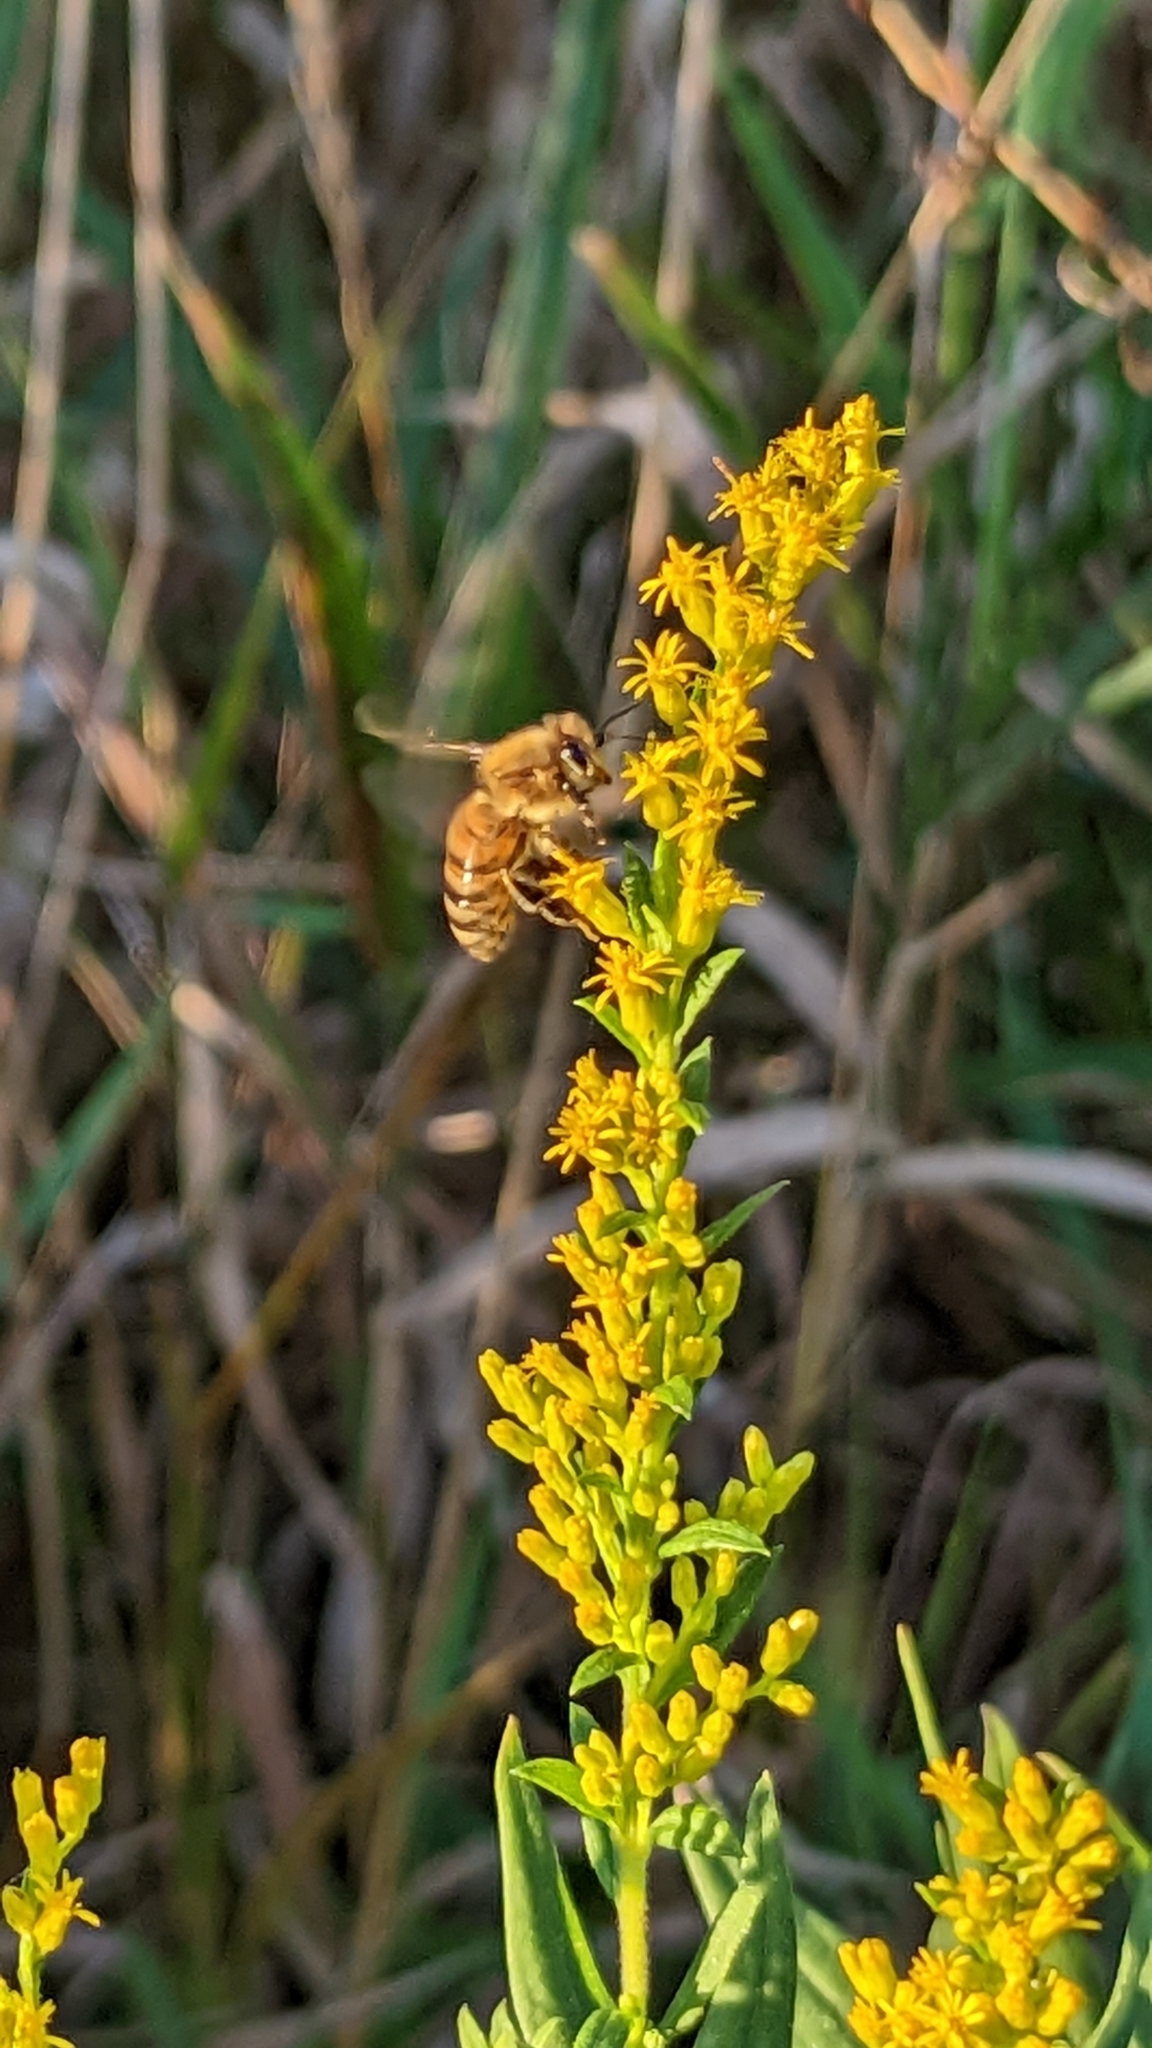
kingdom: Animalia
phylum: Arthropoda
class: Insecta
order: Hymenoptera
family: Apidae
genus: Apis
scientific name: Apis mellifera
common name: Honey bee
